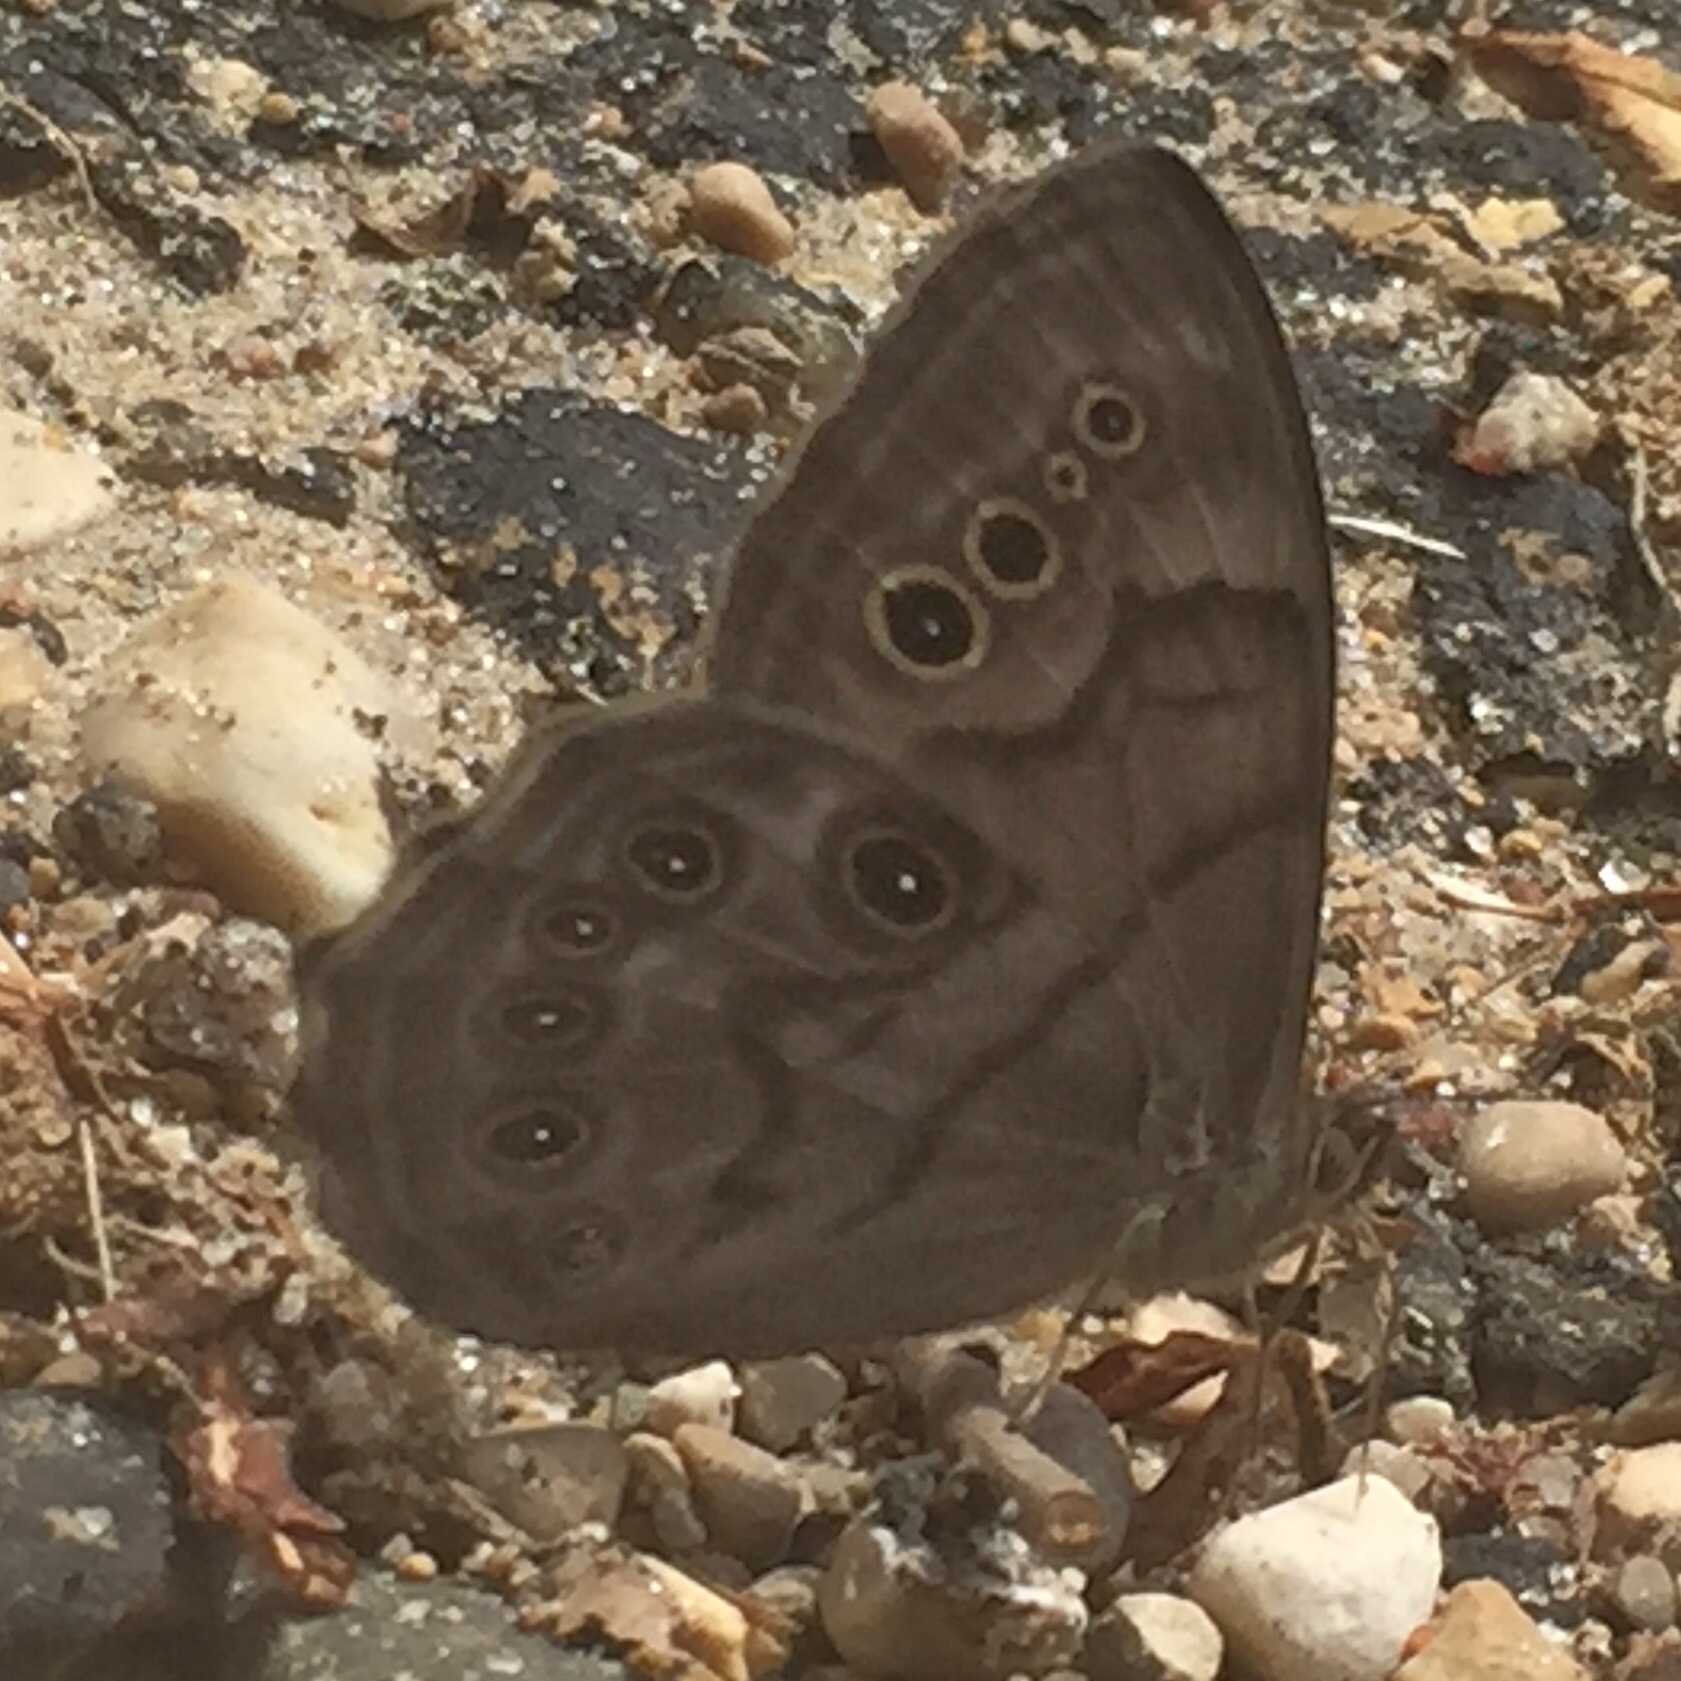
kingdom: Animalia
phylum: Arthropoda
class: Insecta
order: Lepidoptera
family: Nymphalidae
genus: Lethe
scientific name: Lethe anthedon
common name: Northern pearly-eye
